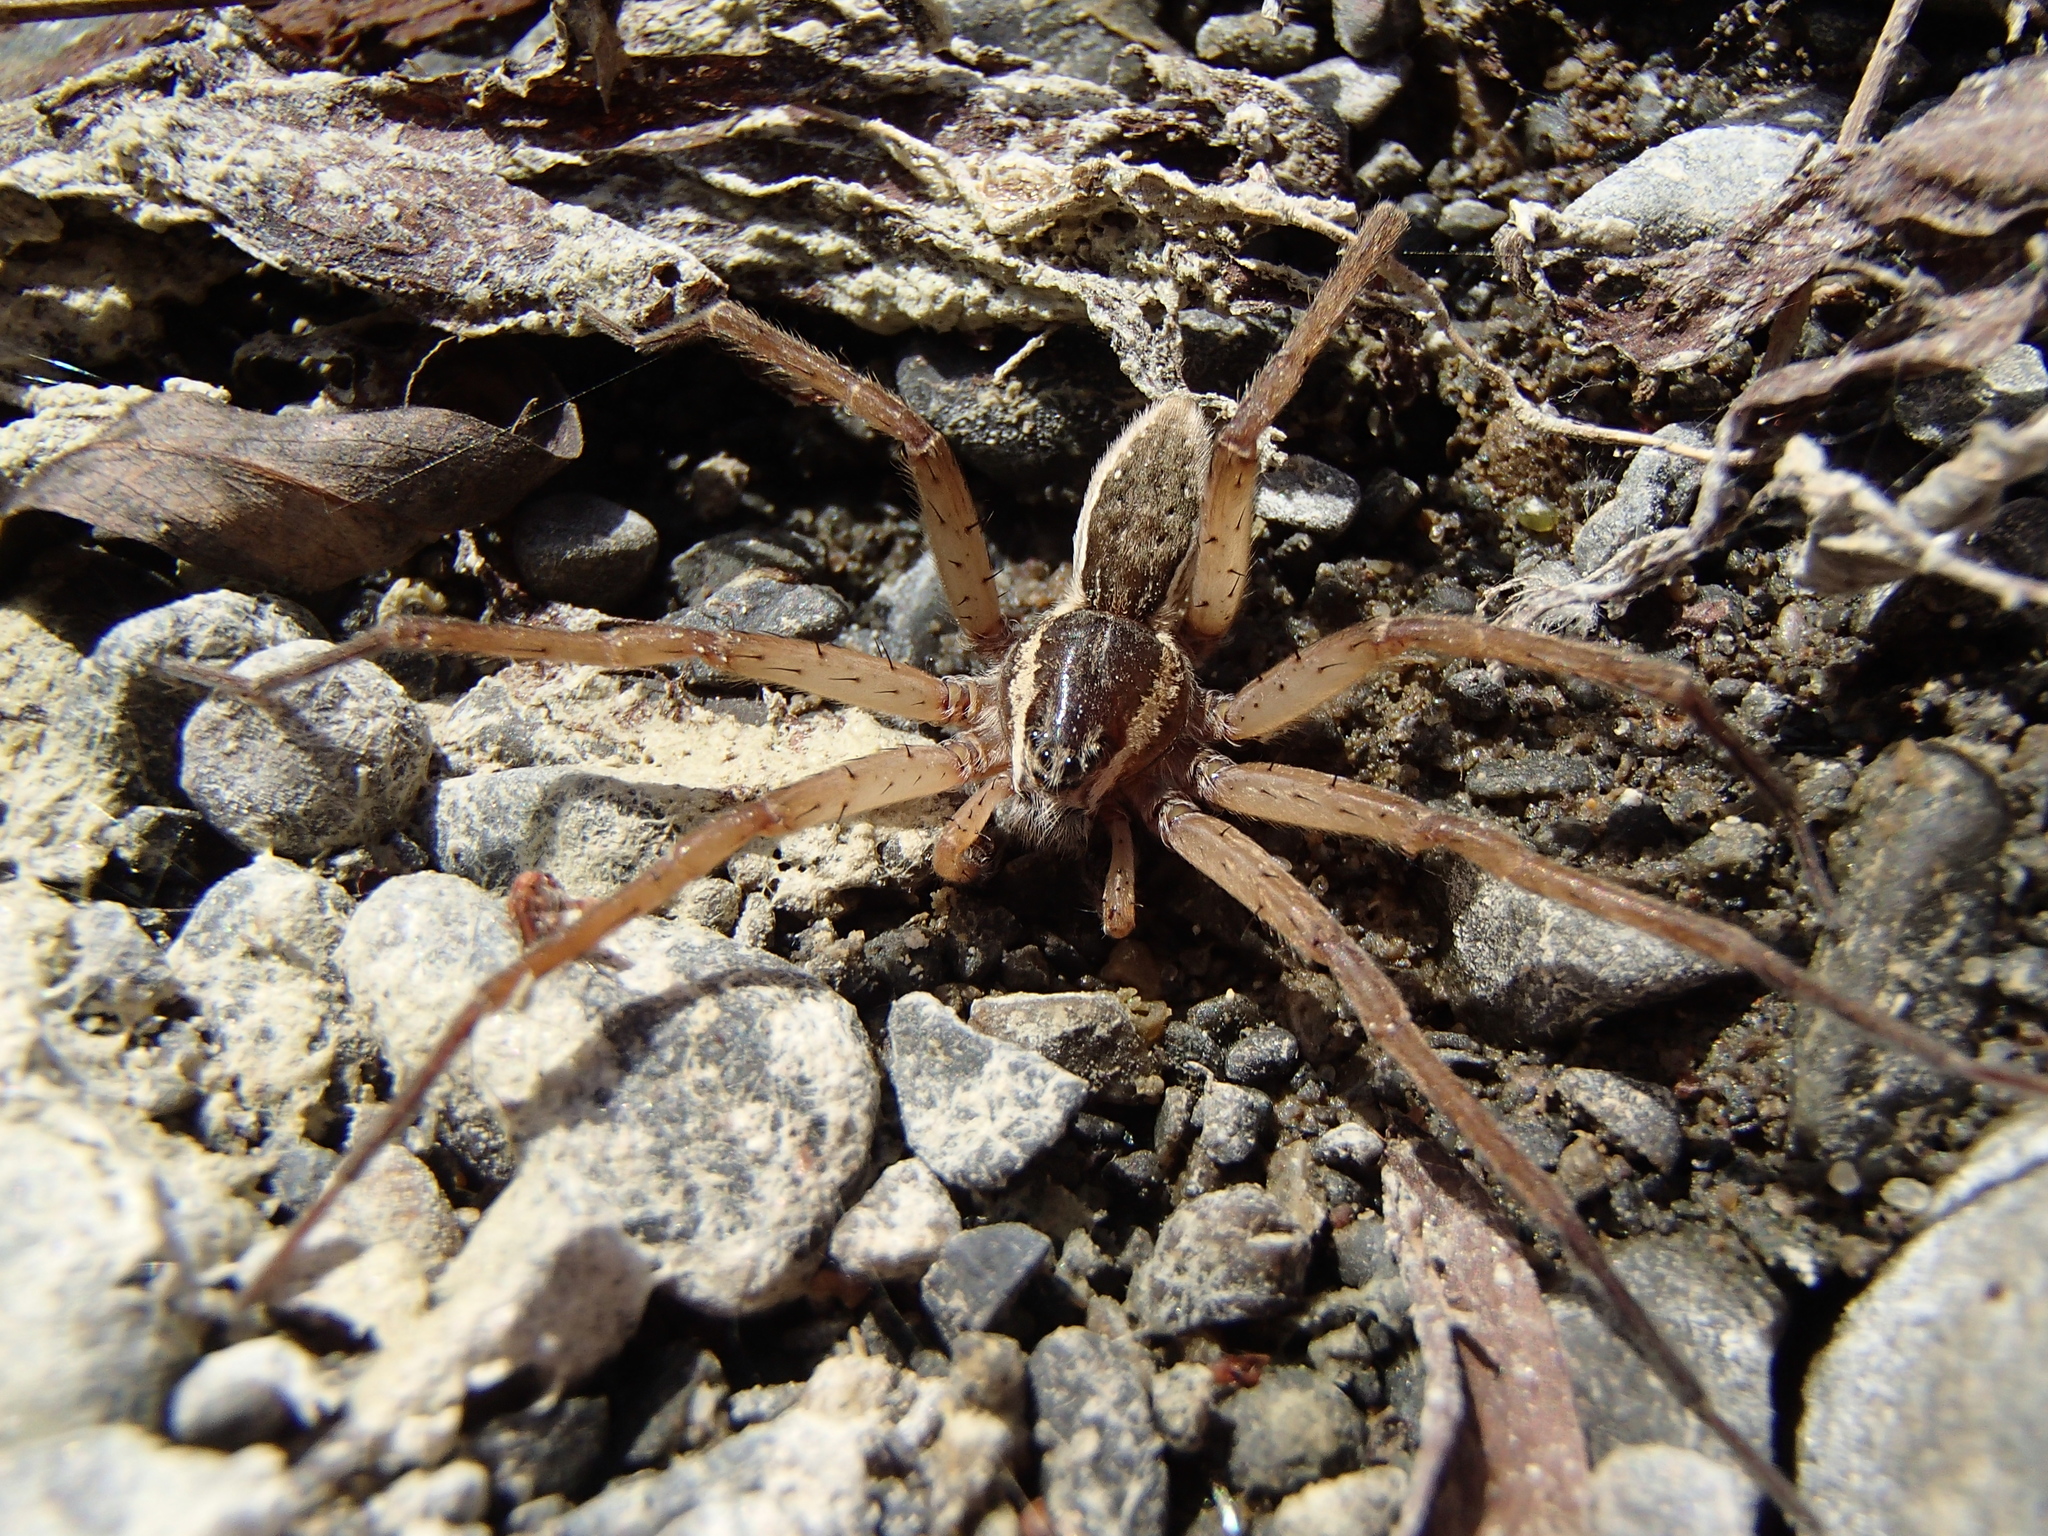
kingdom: Animalia
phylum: Arthropoda
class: Arachnida
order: Araneae
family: Pisauridae
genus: Dolomedes
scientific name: Dolomedes aquaticus
